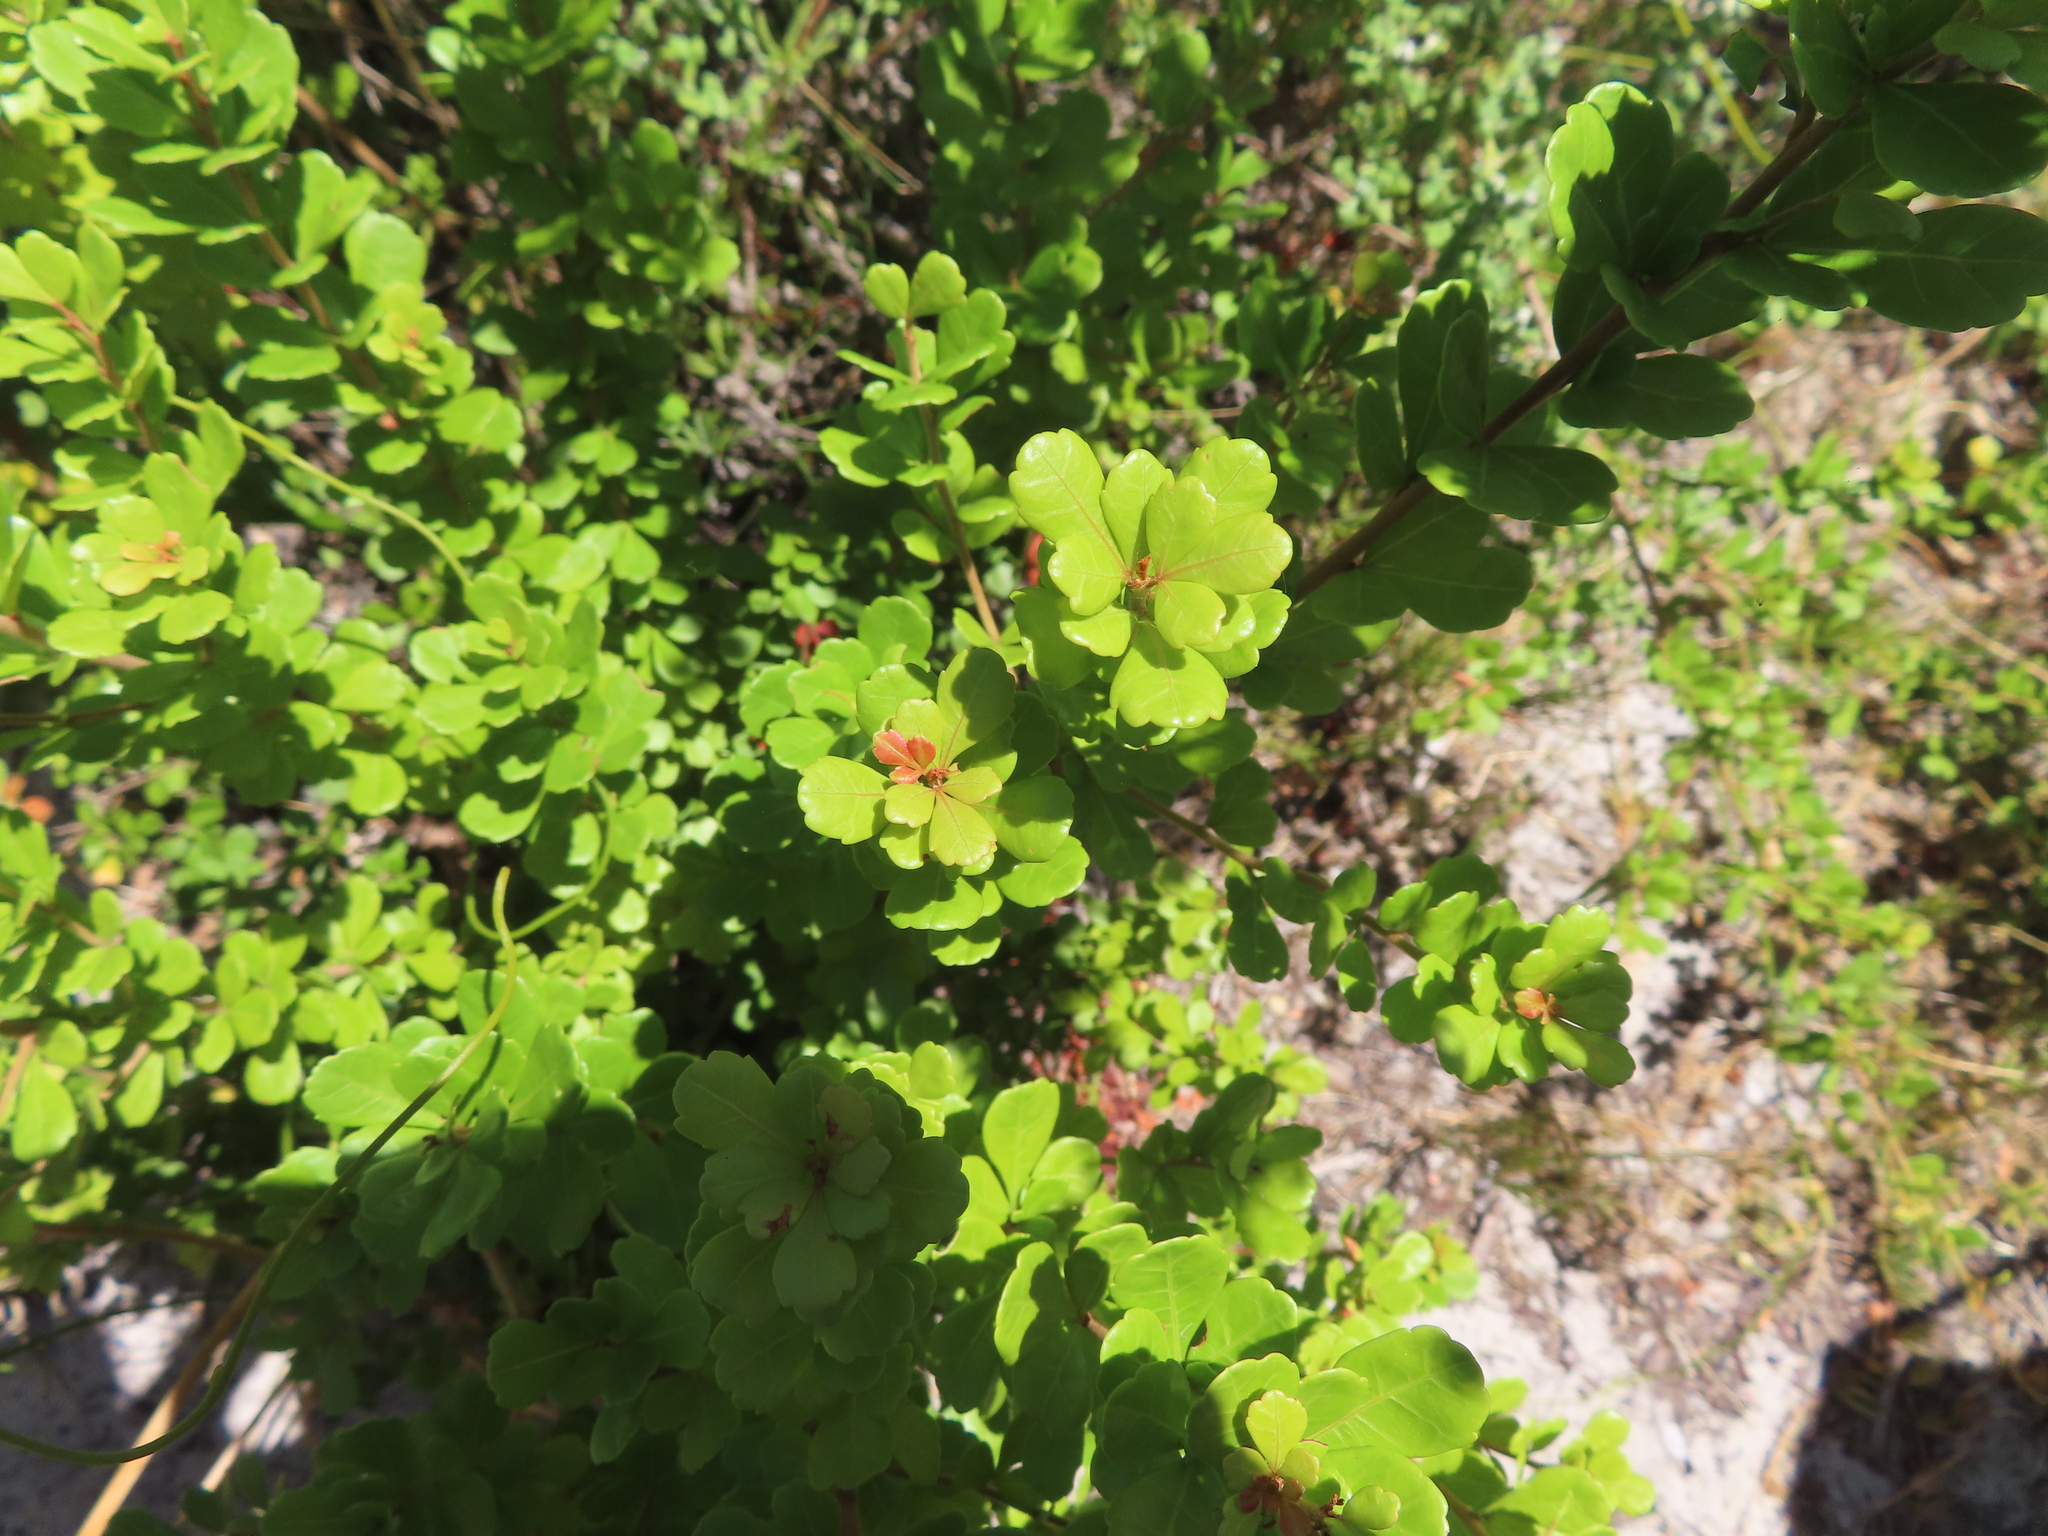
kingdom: Plantae
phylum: Tracheophyta
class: Magnoliopsida
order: Sapindales
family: Anacardiaceae
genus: Searsia
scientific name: Searsia crenata
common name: Crowberry
